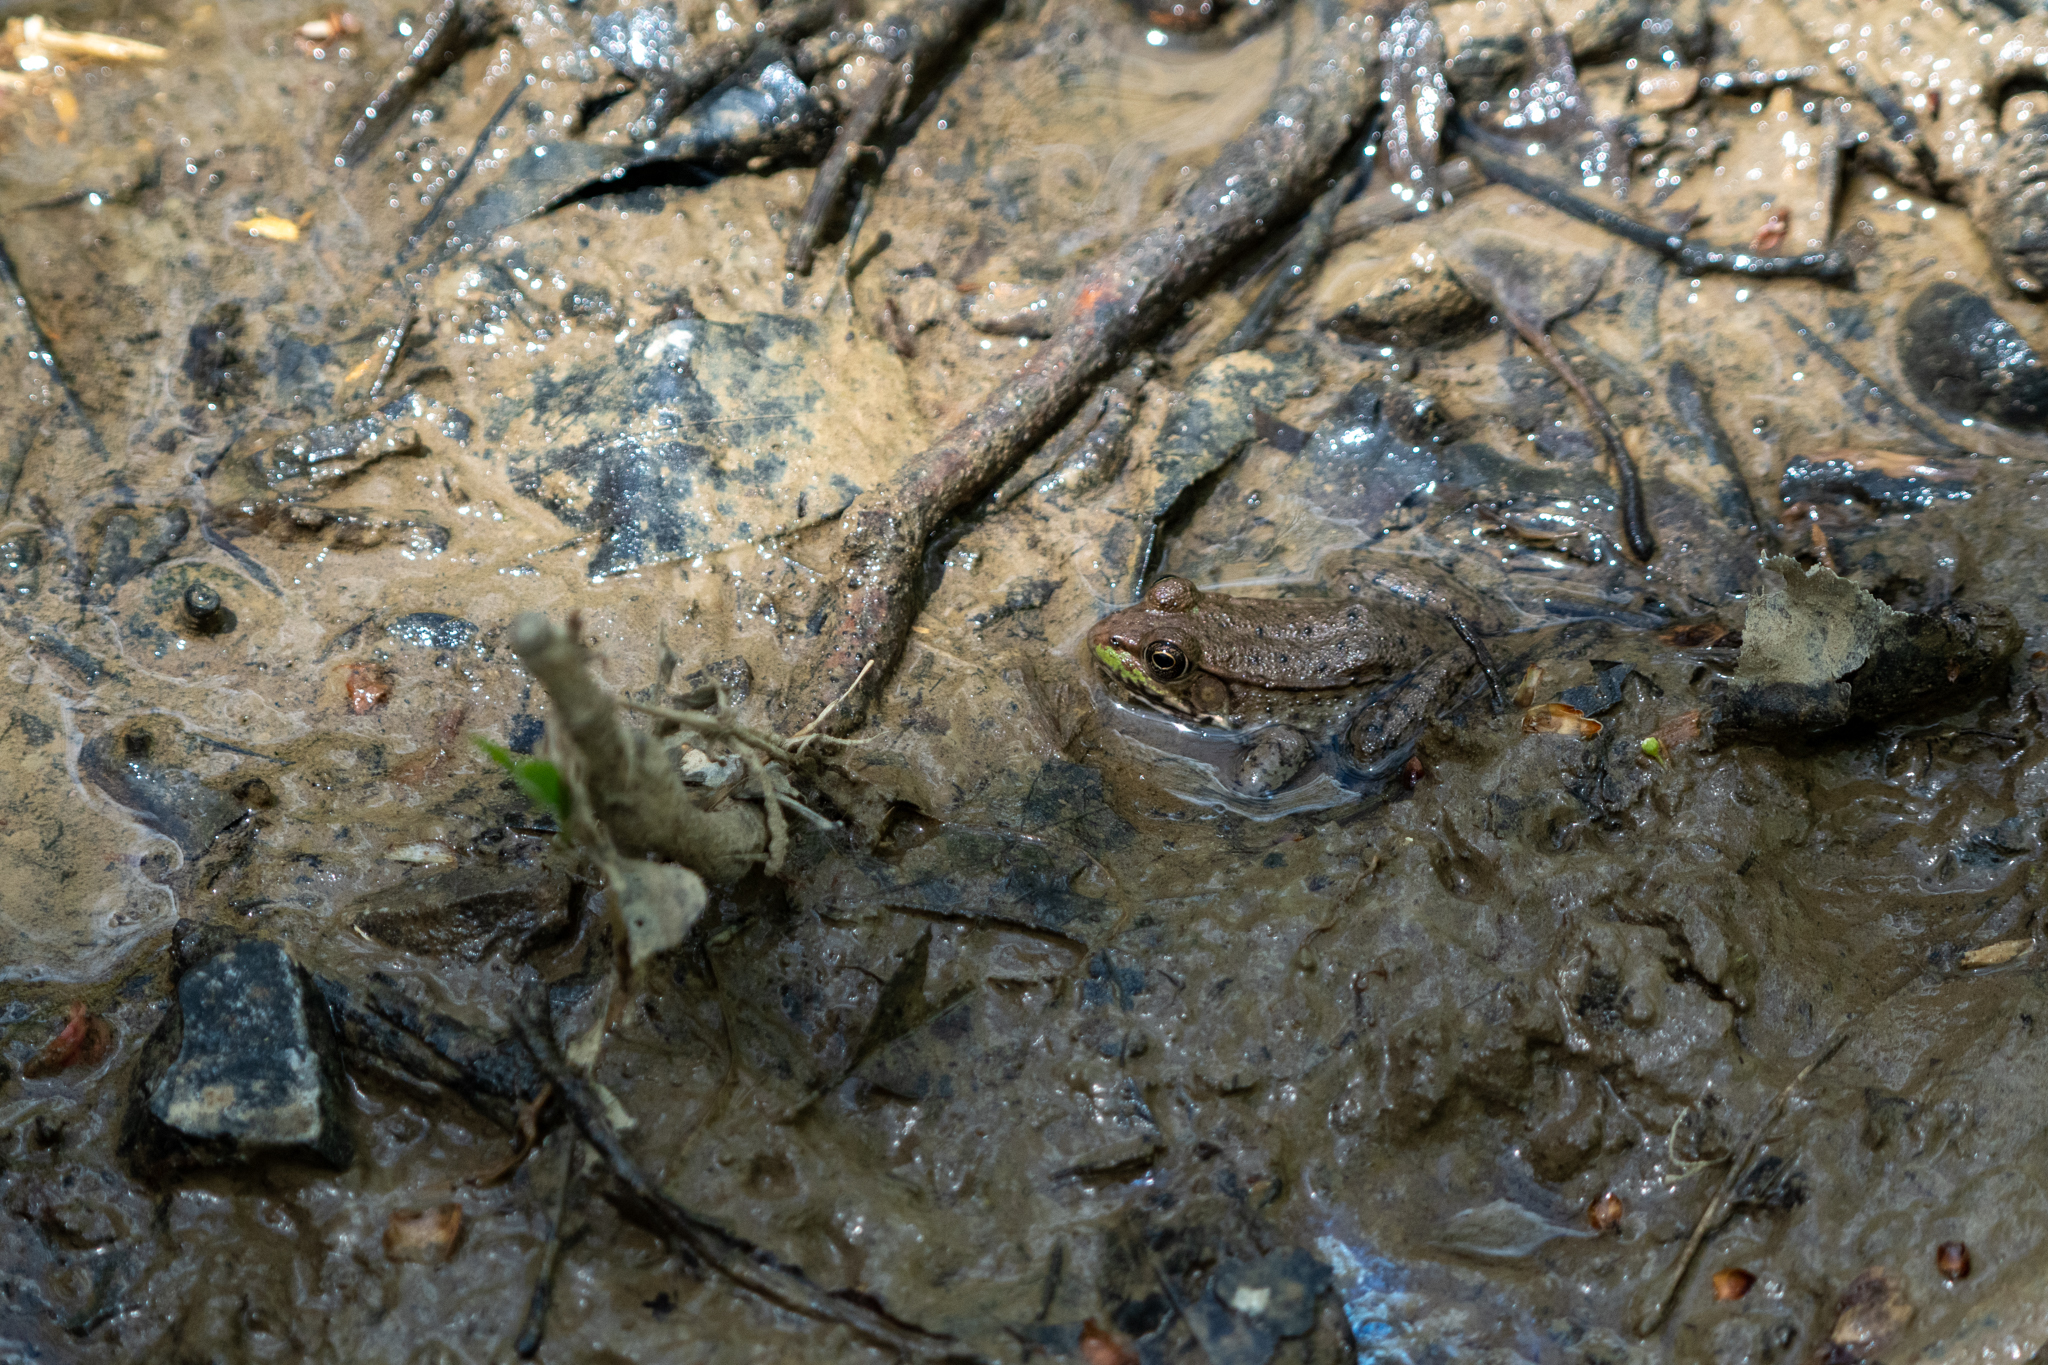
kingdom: Animalia
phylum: Chordata
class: Amphibia
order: Anura
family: Ranidae
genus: Lithobates
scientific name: Lithobates clamitans
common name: Green frog
